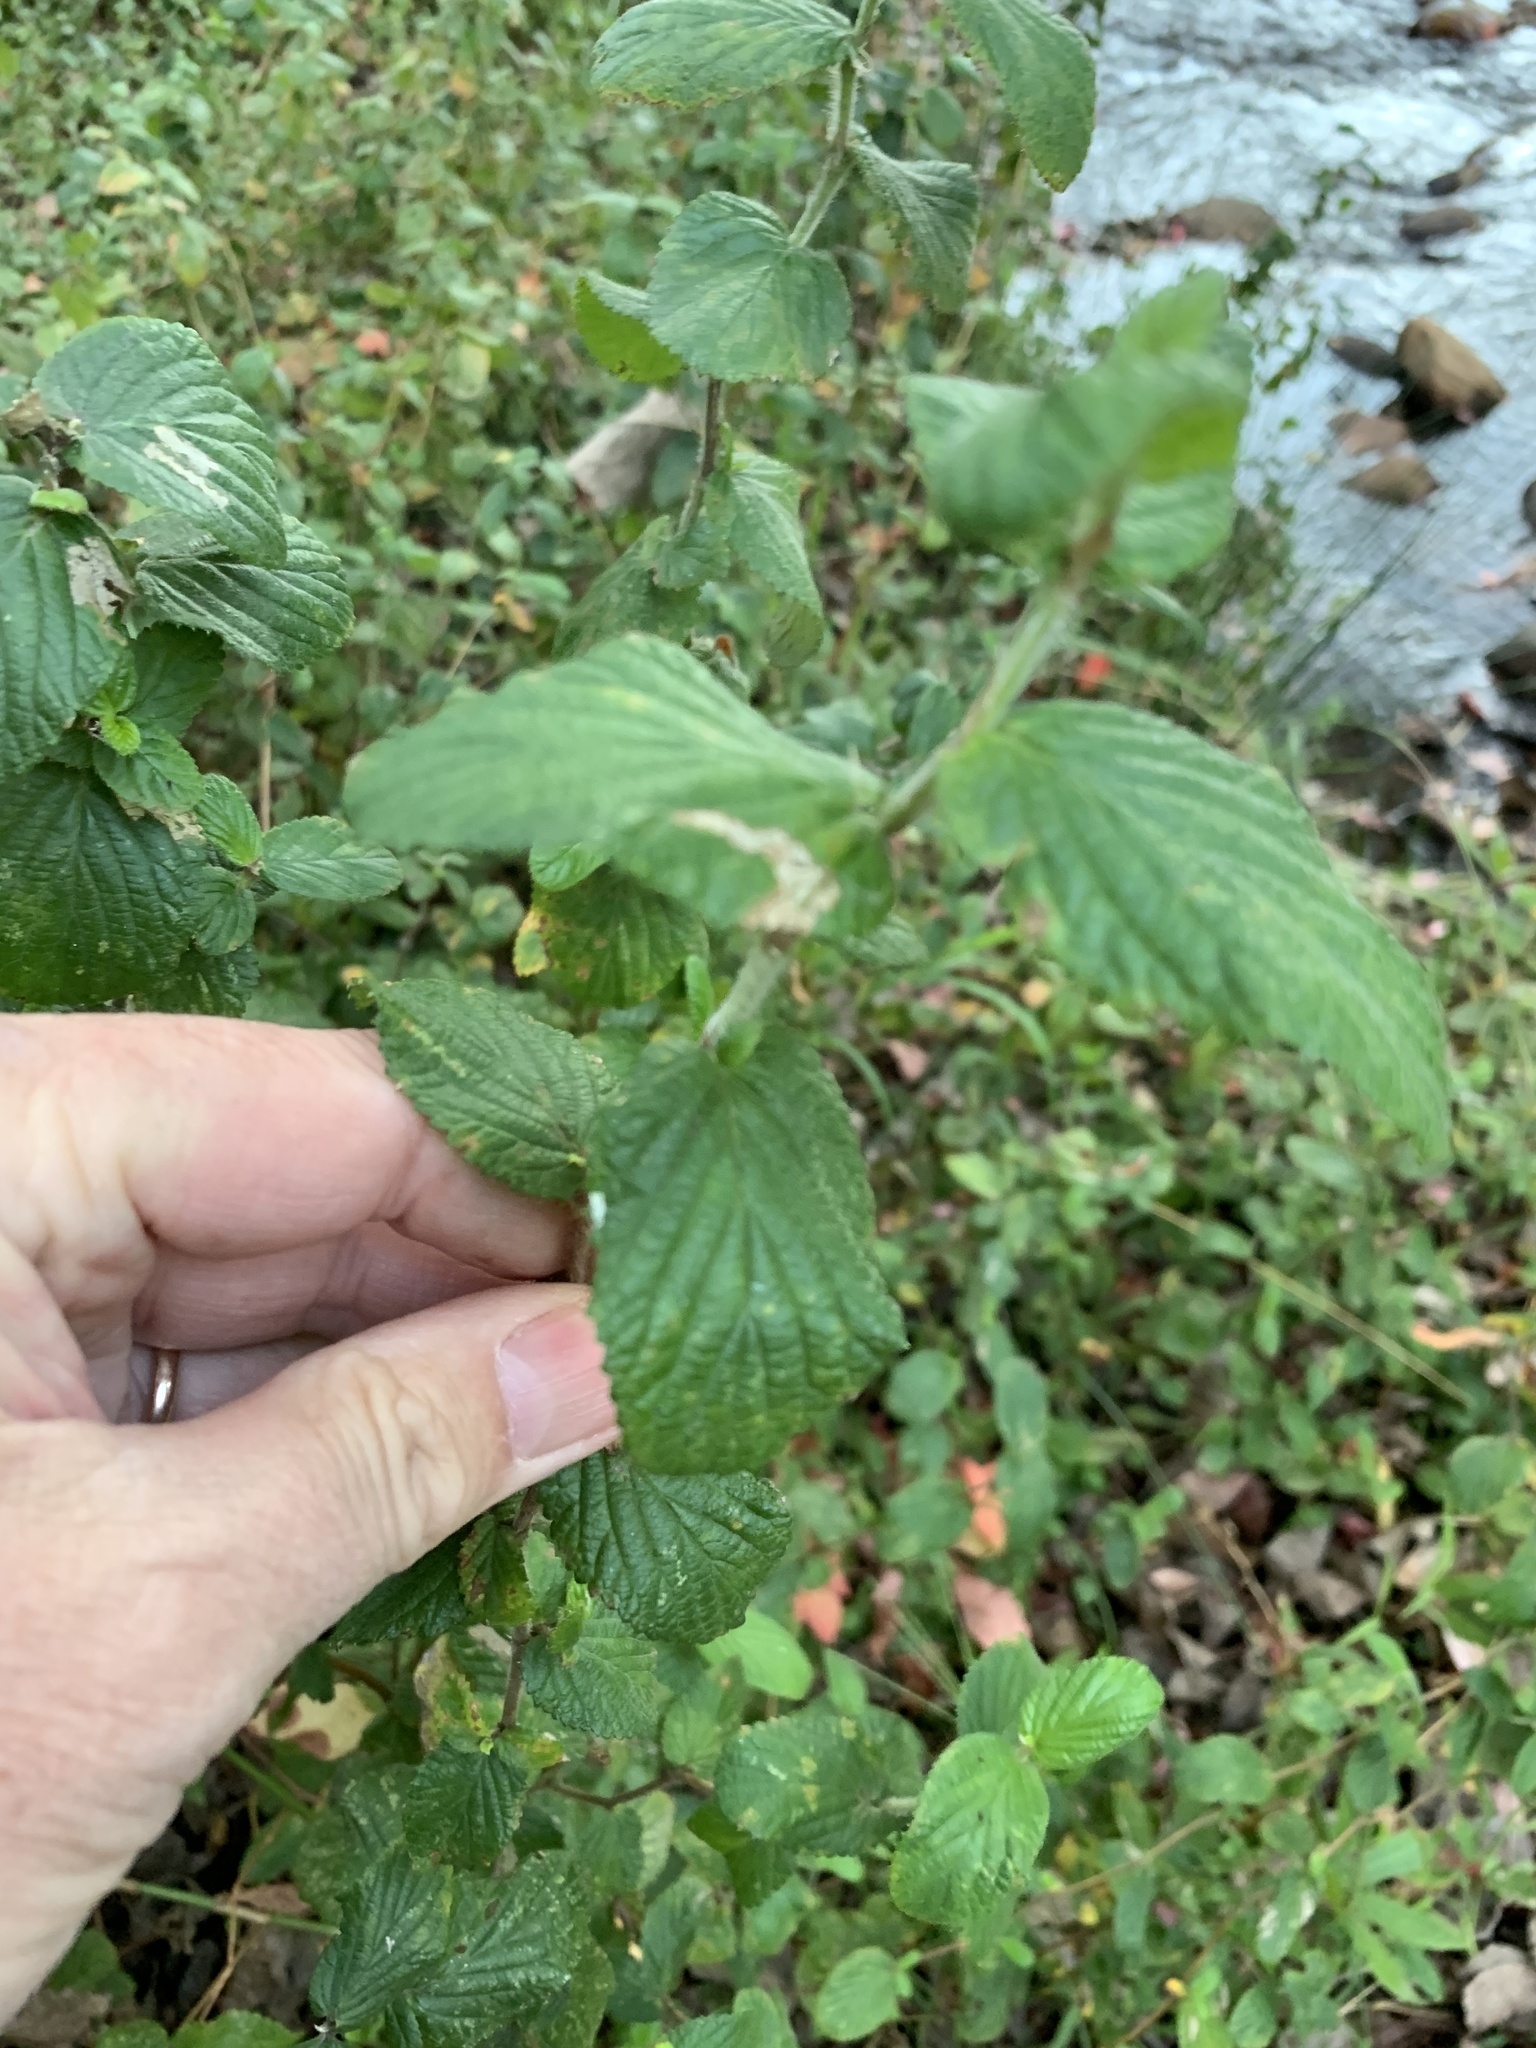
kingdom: Plantae
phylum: Tracheophyta
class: Magnoliopsida
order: Rosales
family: Rosaceae
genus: Cliffortia
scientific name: Cliffortia odorata
